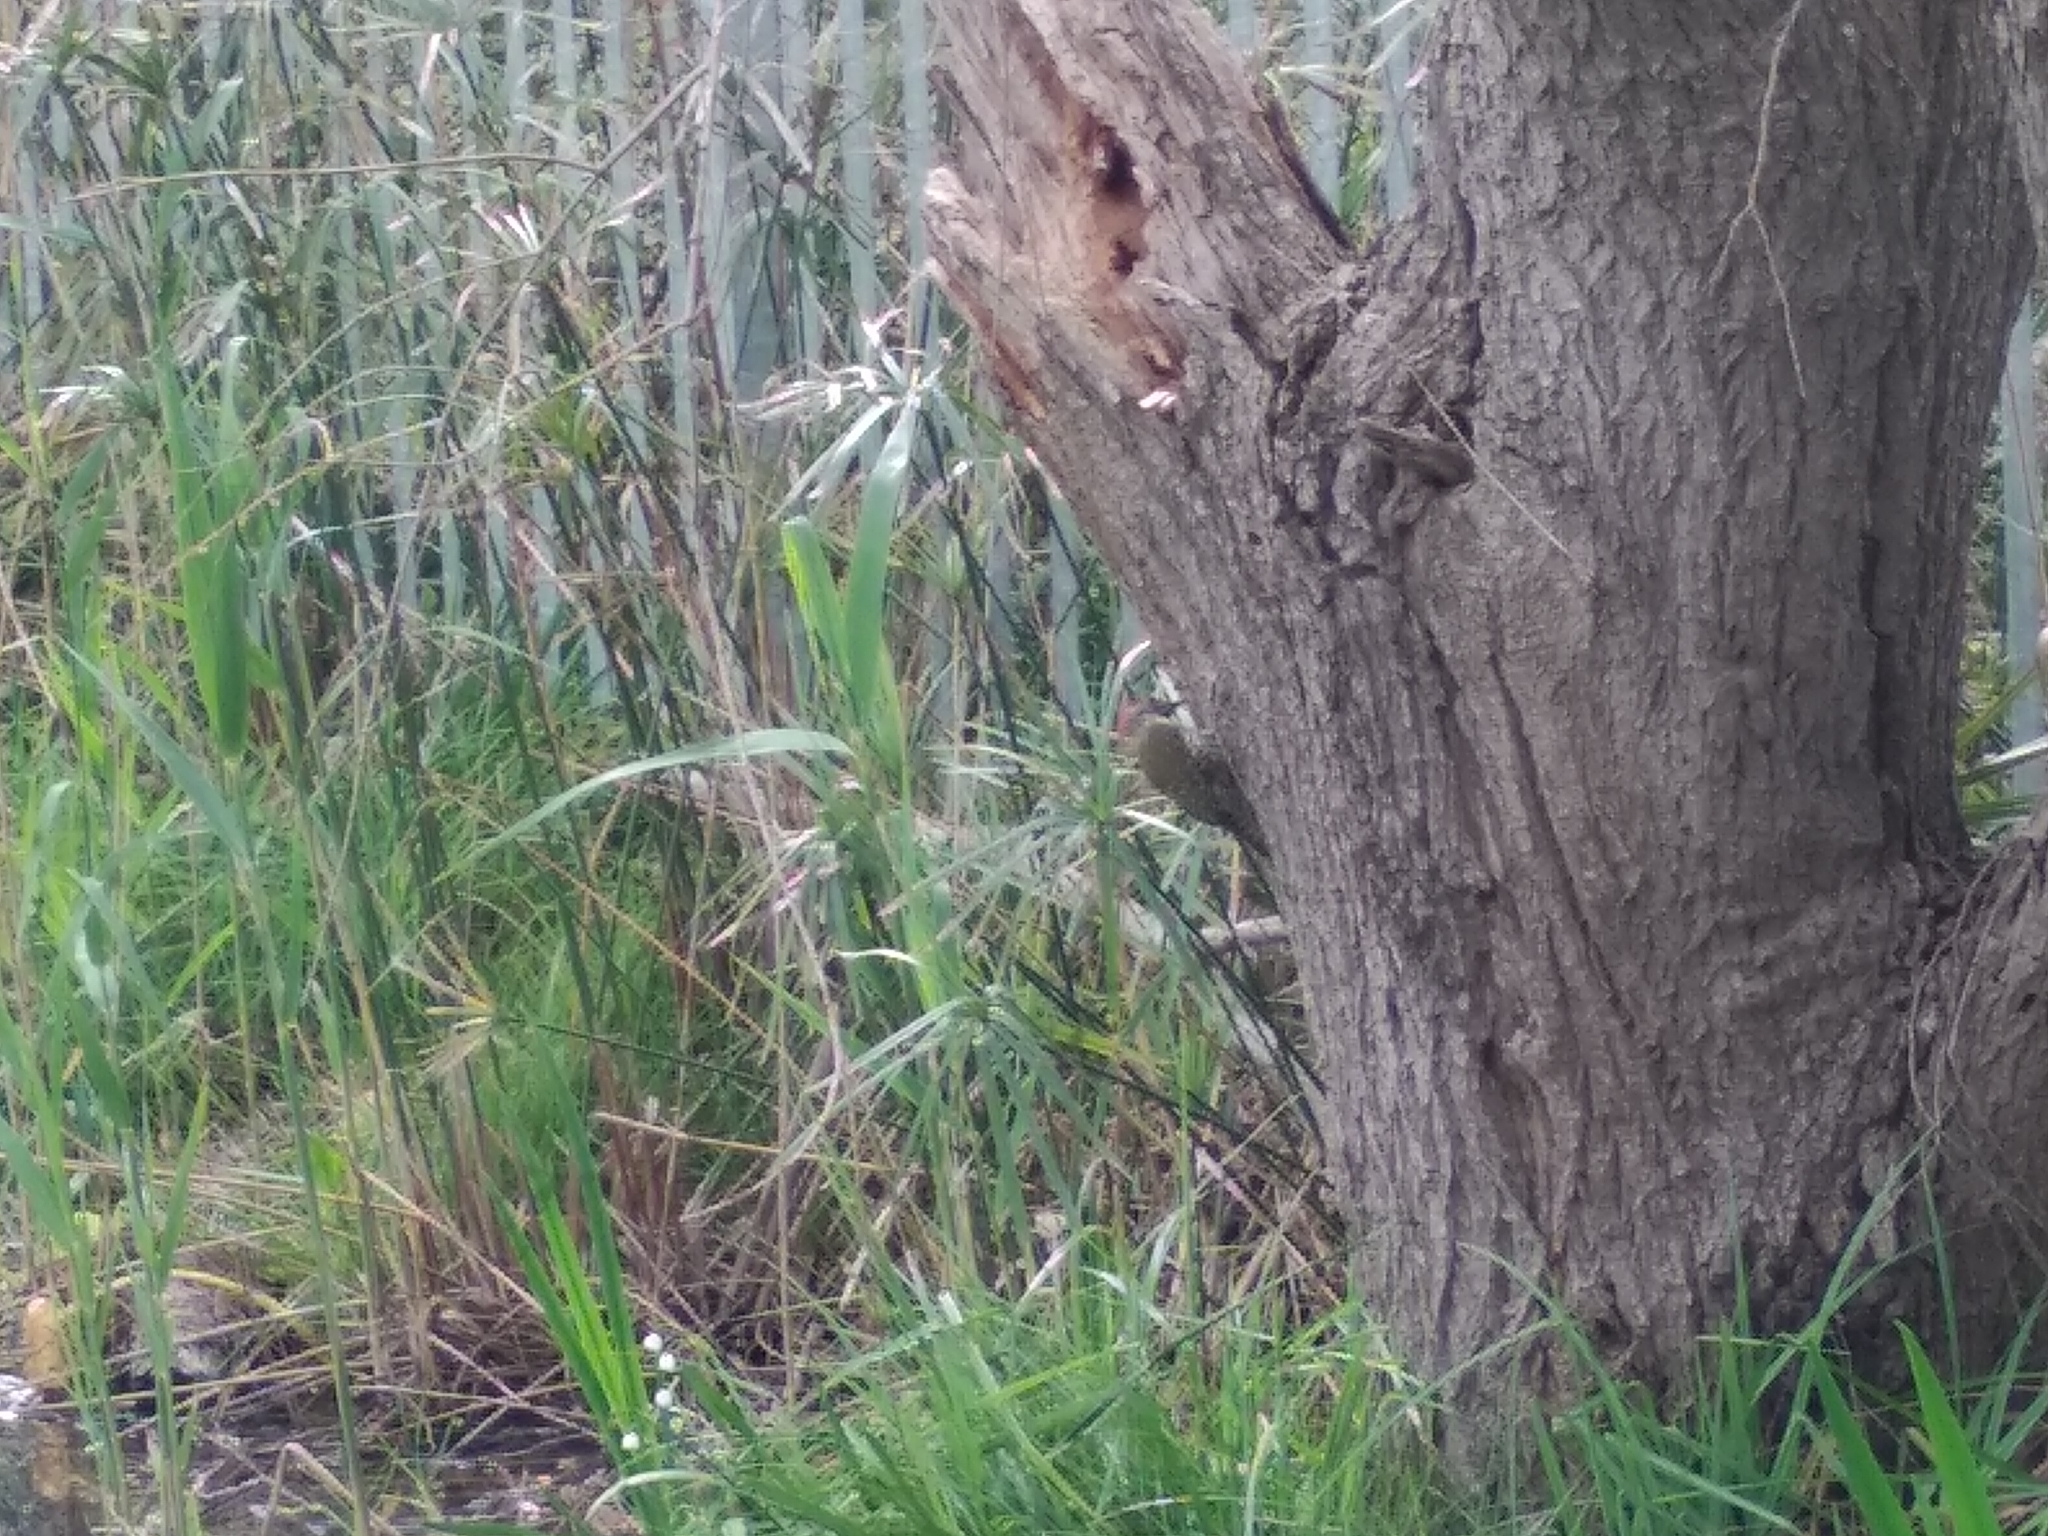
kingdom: Animalia
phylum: Chordata
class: Aves
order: Piciformes
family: Picidae
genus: Dendropicos
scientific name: Dendropicos griseocephalus
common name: Olive woodpecker
